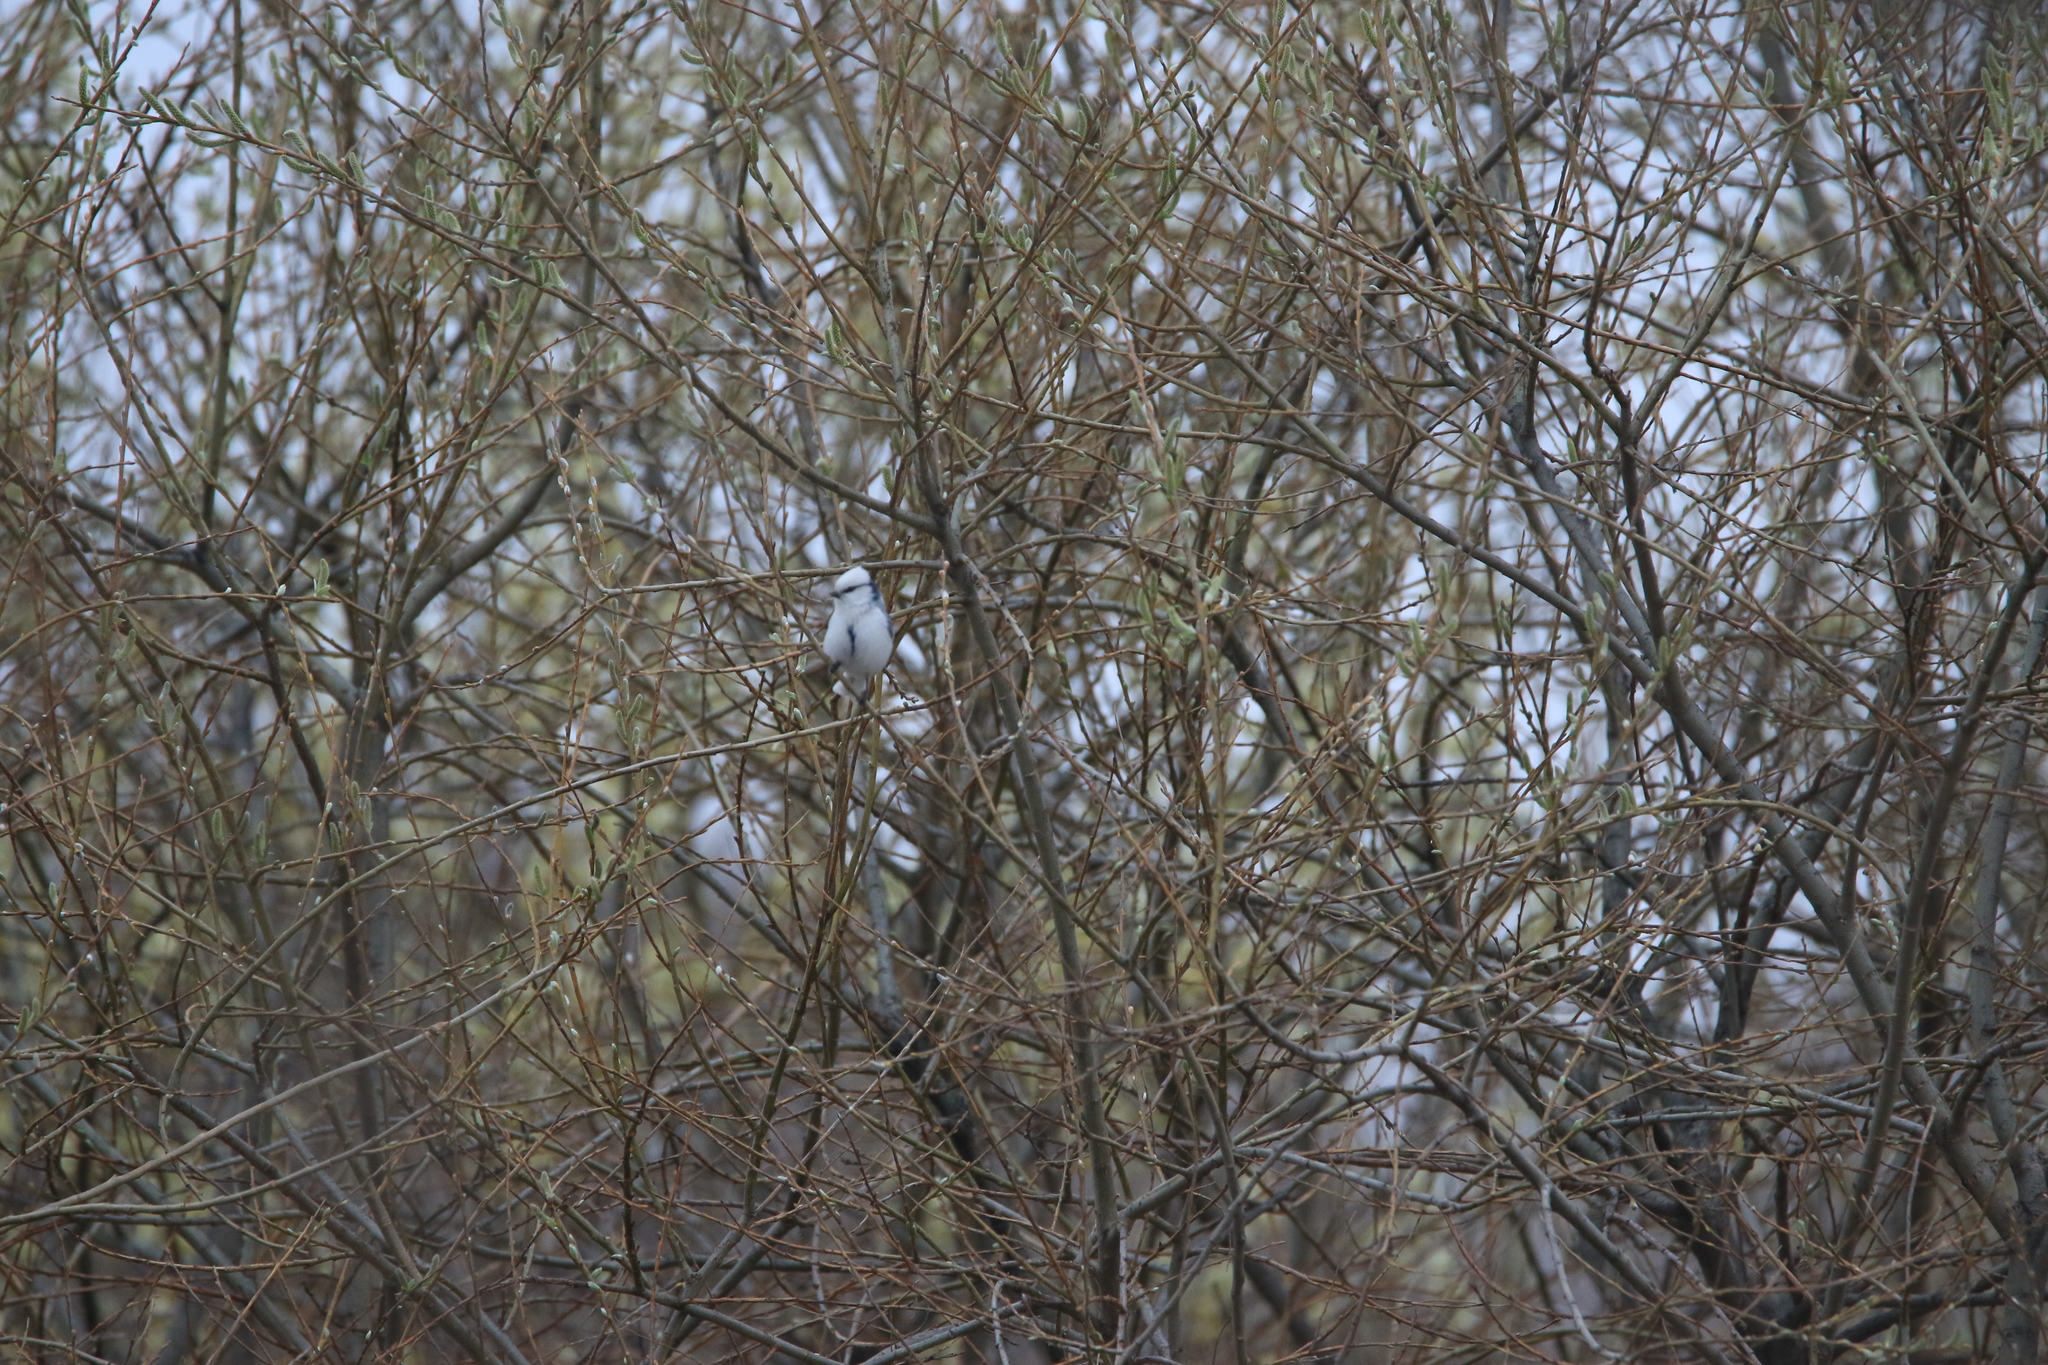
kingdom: Animalia
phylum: Chordata
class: Aves
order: Passeriformes
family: Paridae
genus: Cyanistes
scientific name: Cyanistes cyanus
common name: Azure tit
